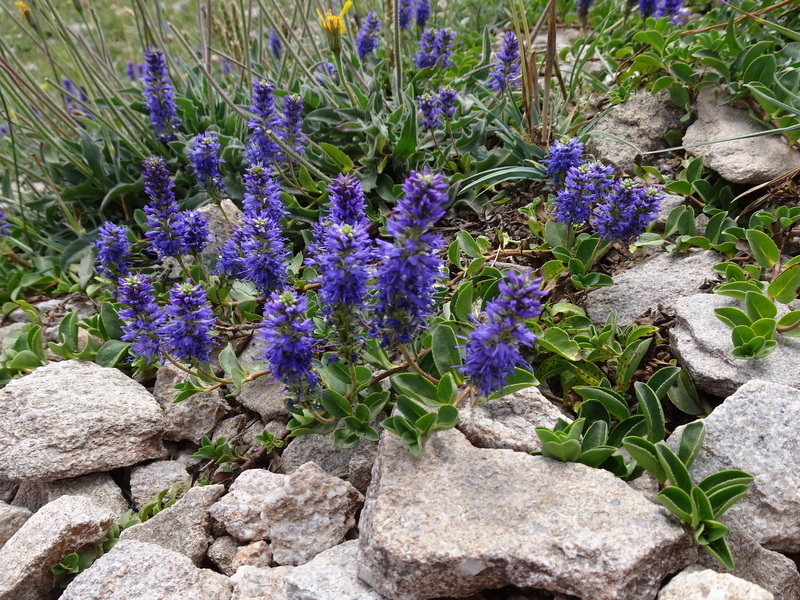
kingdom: Plantae
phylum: Tracheophyta
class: Magnoliopsida
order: Lamiales
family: Plantaginaceae
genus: Veronica
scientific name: Veronica allionii
